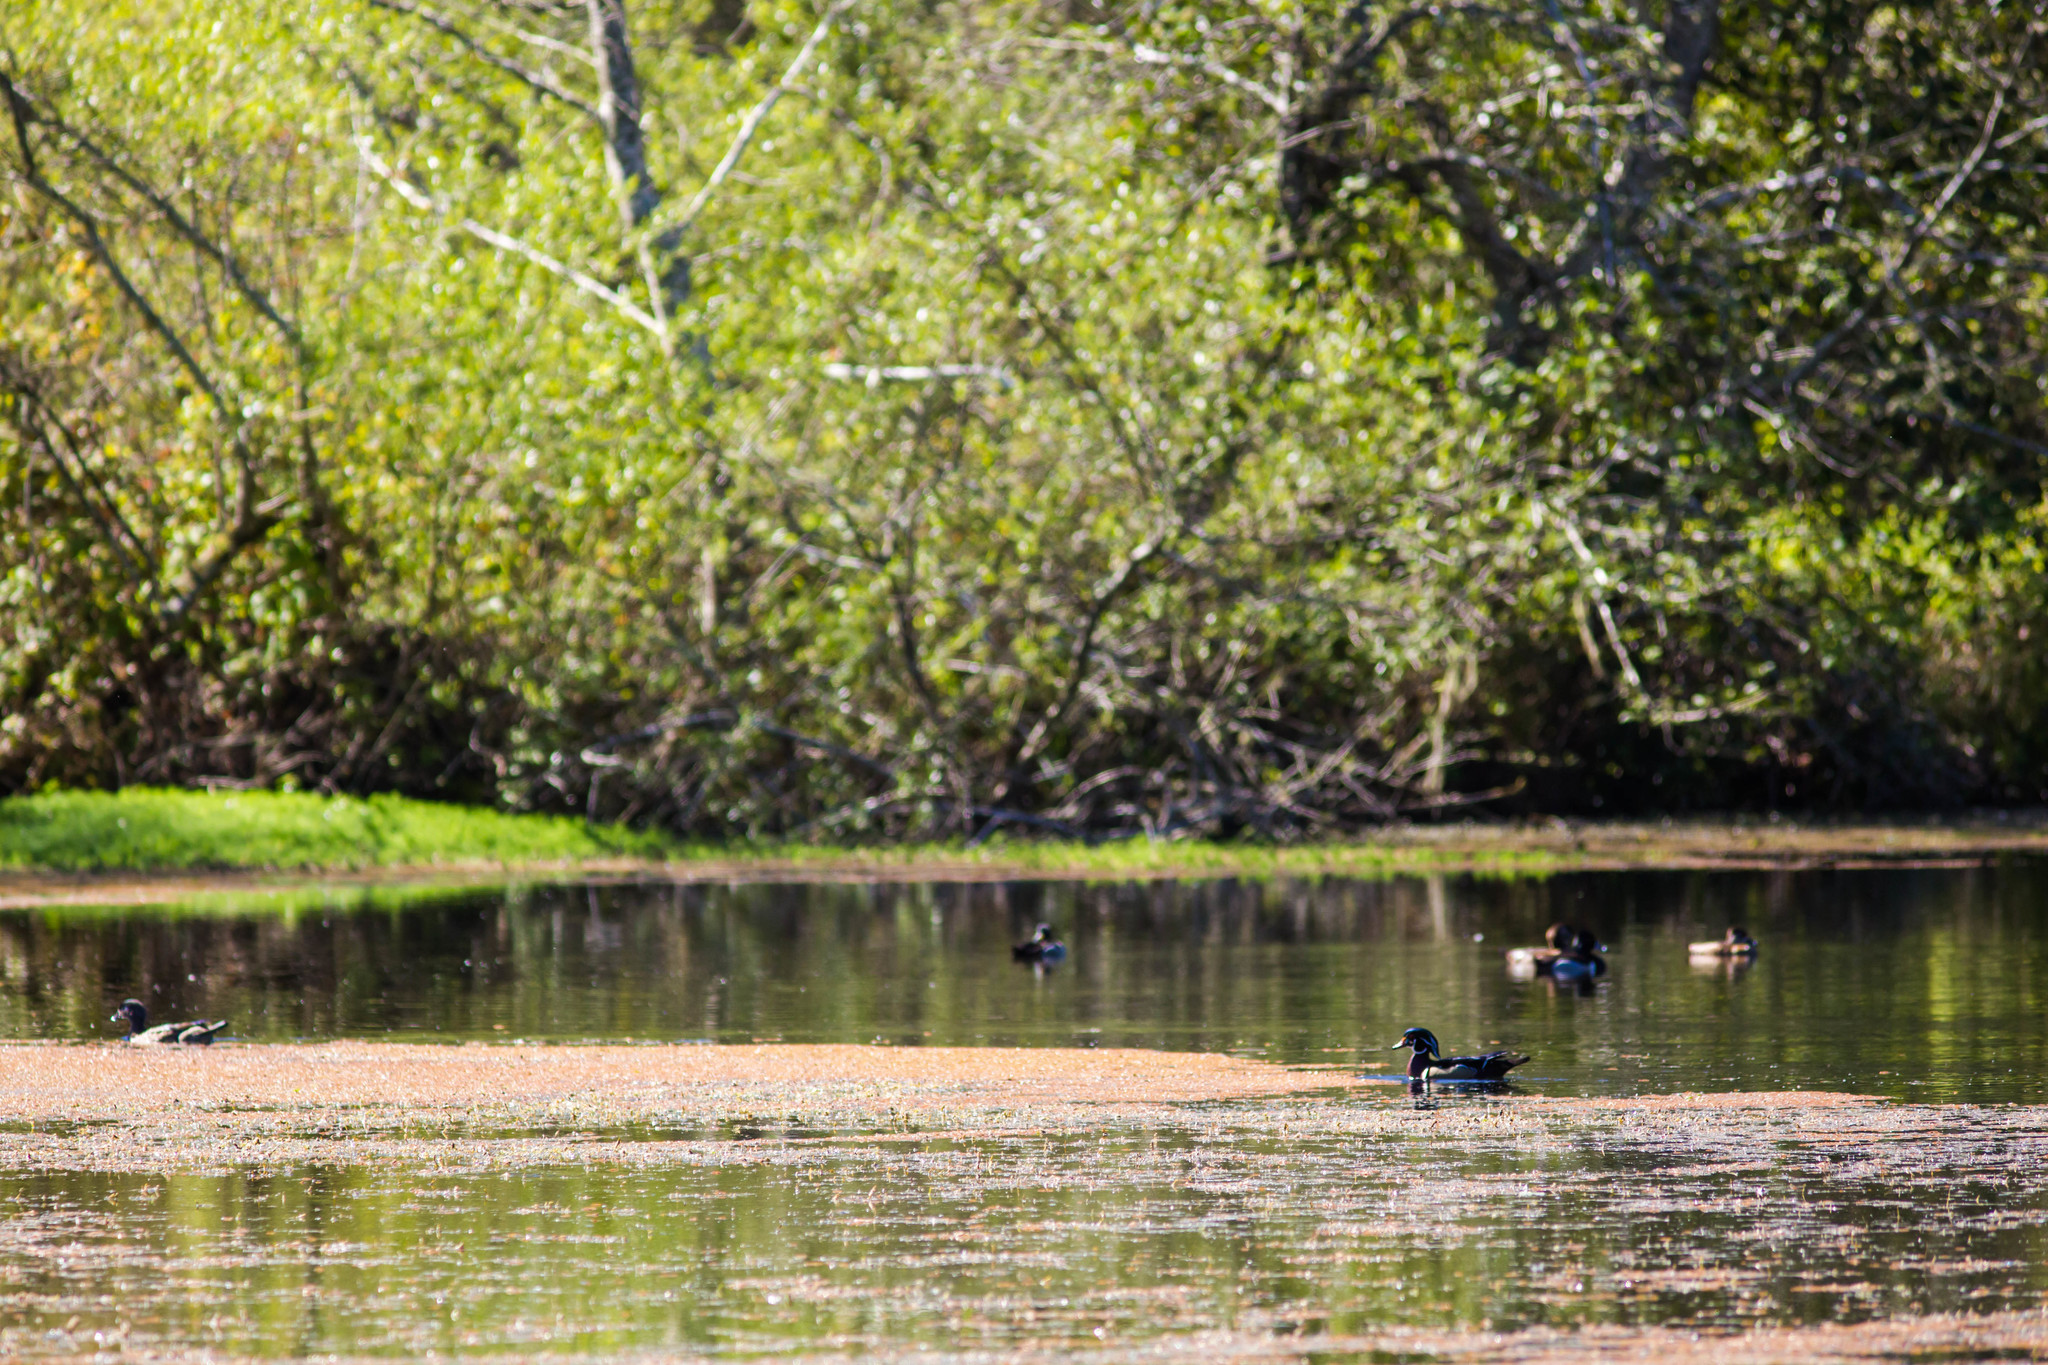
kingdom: Animalia
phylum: Chordata
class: Aves
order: Anseriformes
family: Anatidae
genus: Aix
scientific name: Aix sponsa
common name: Wood duck
